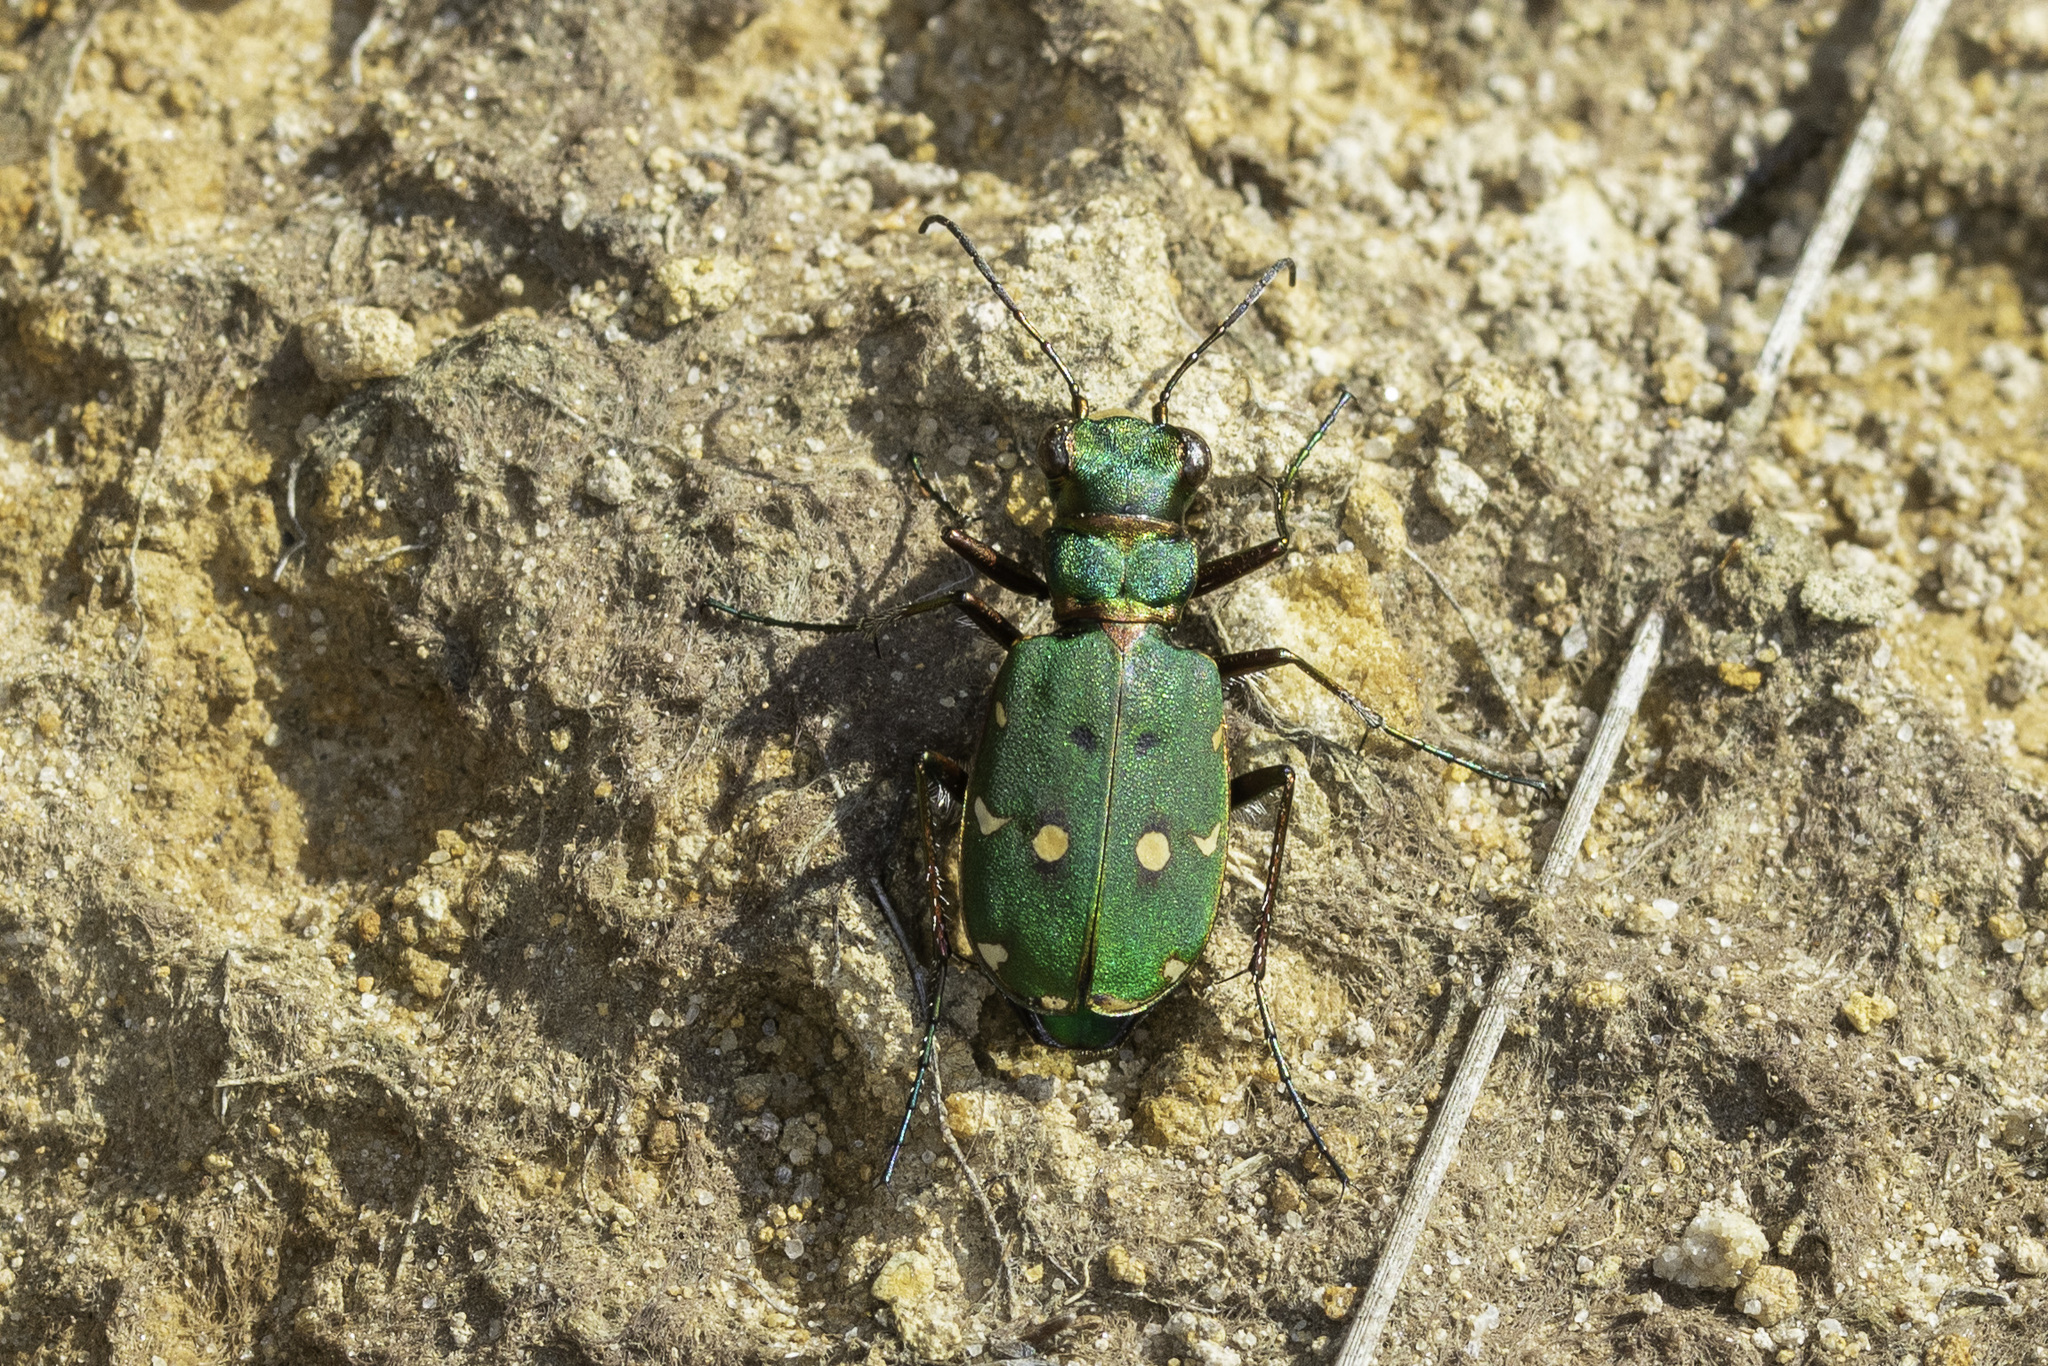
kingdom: Animalia
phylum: Arthropoda
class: Insecta
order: Coleoptera
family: Carabidae
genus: Cicindela
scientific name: Cicindela campestris
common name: Common tiger beetle
